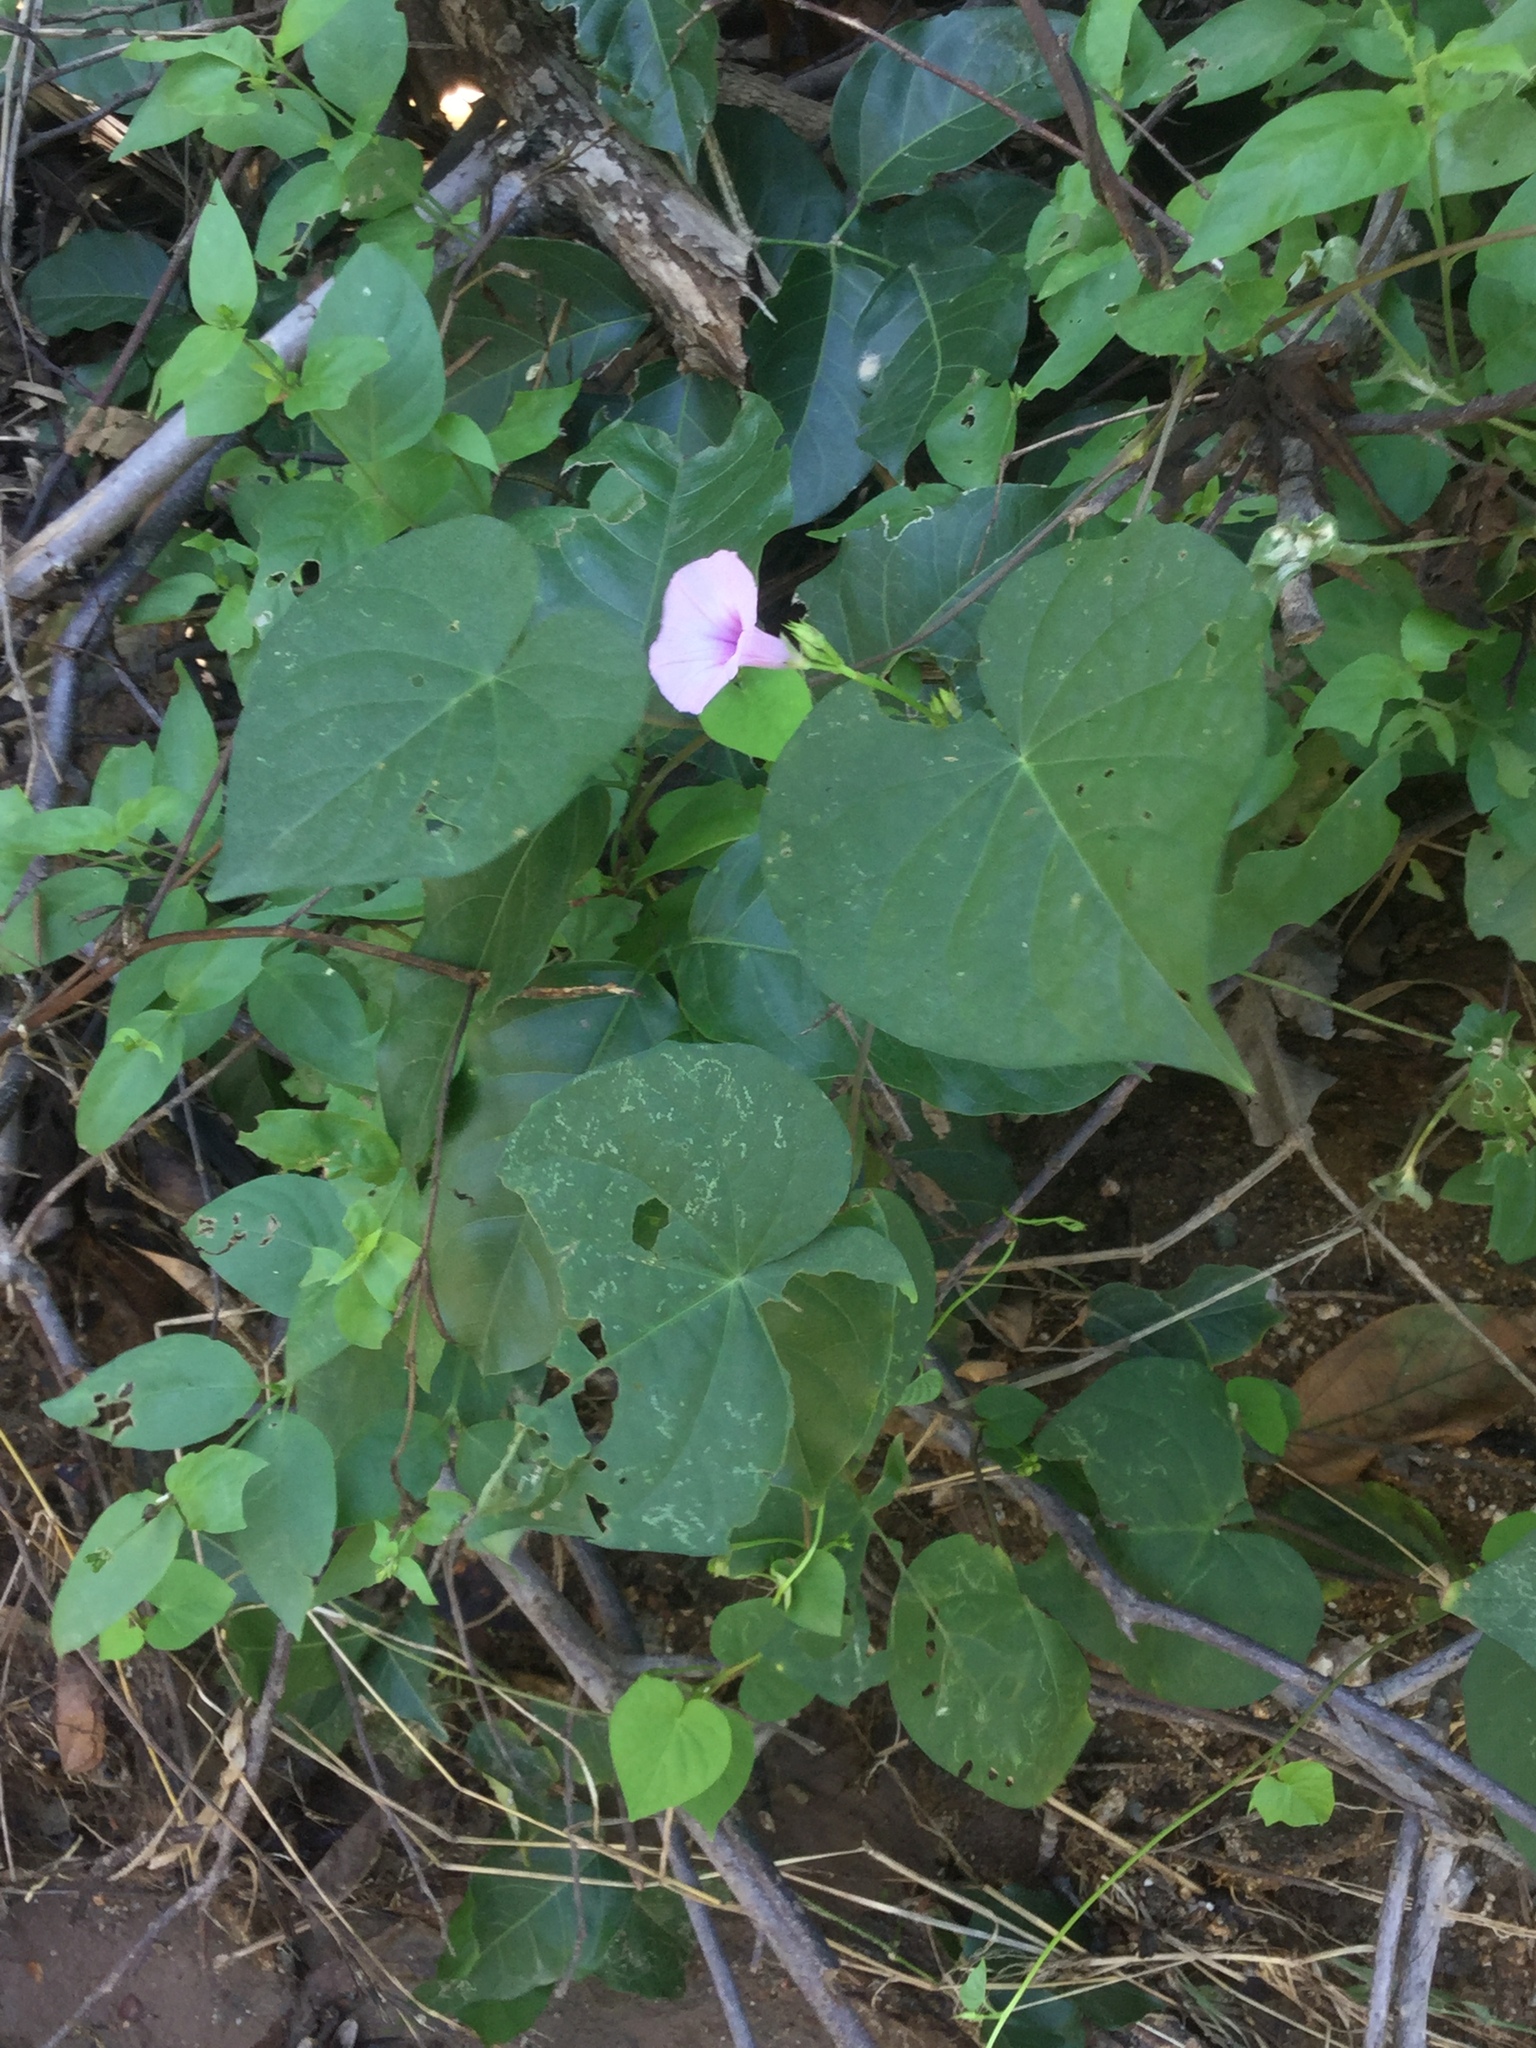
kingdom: Plantae
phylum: Tracheophyta
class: Magnoliopsida
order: Solanales
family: Convolvulaceae
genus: Ipomoea
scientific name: Ipomoea trifida
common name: Cotton morningglory
